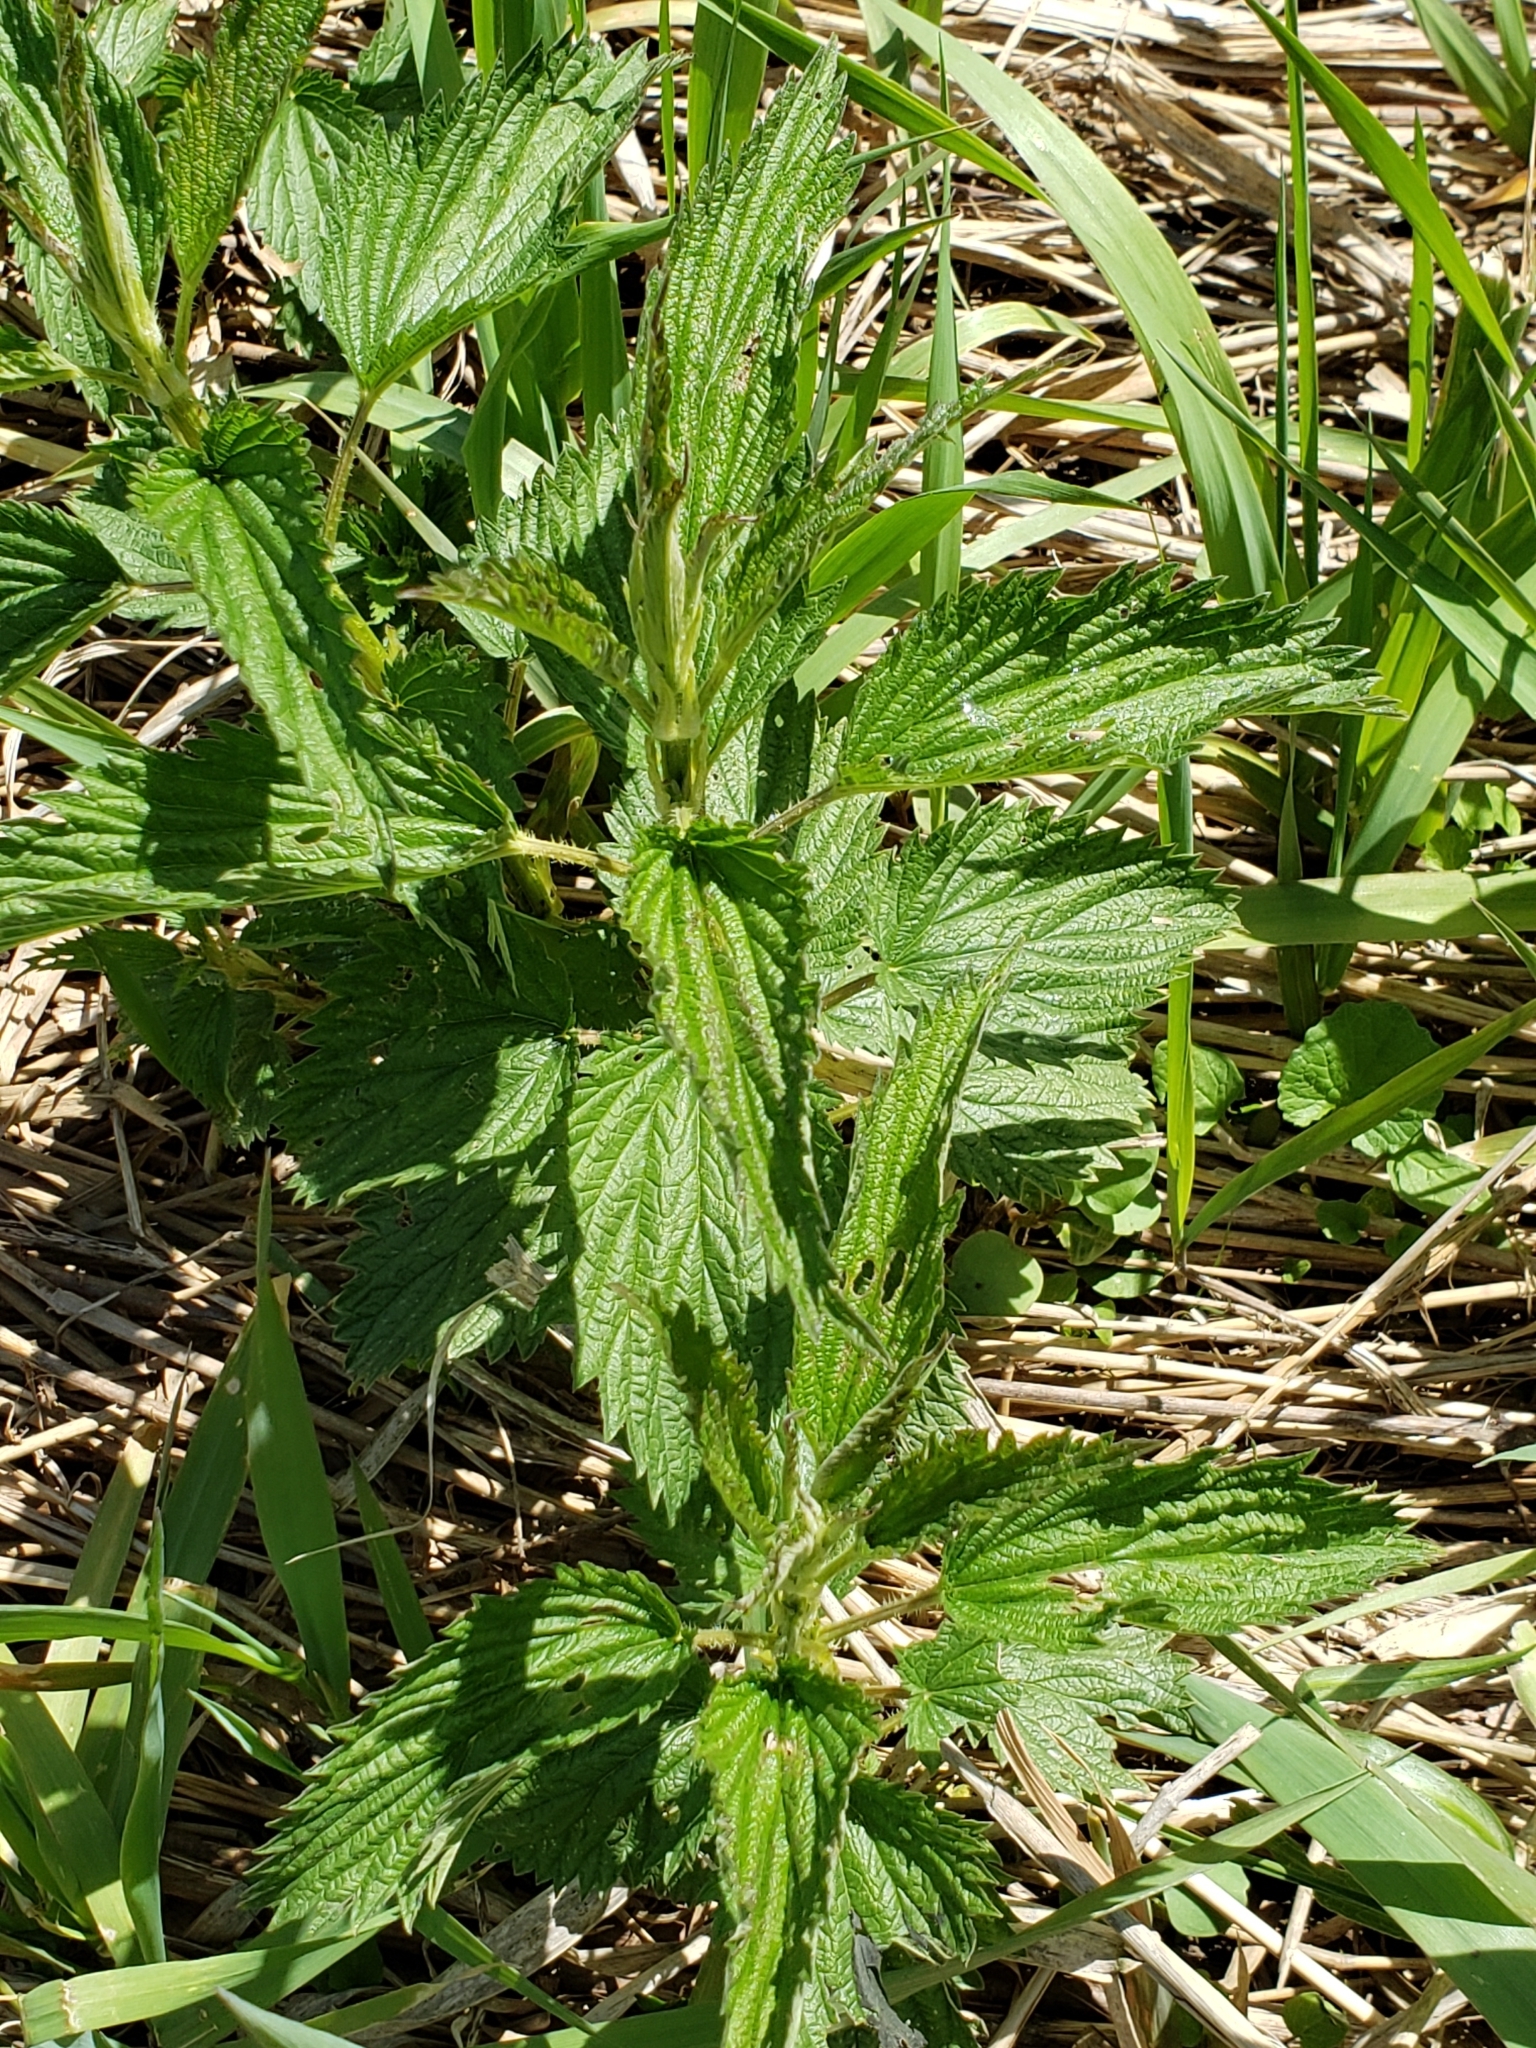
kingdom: Plantae
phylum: Tracheophyta
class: Magnoliopsida
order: Rosales
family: Urticaceae
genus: Urtica
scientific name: Urtica dioica
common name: Common nettle
